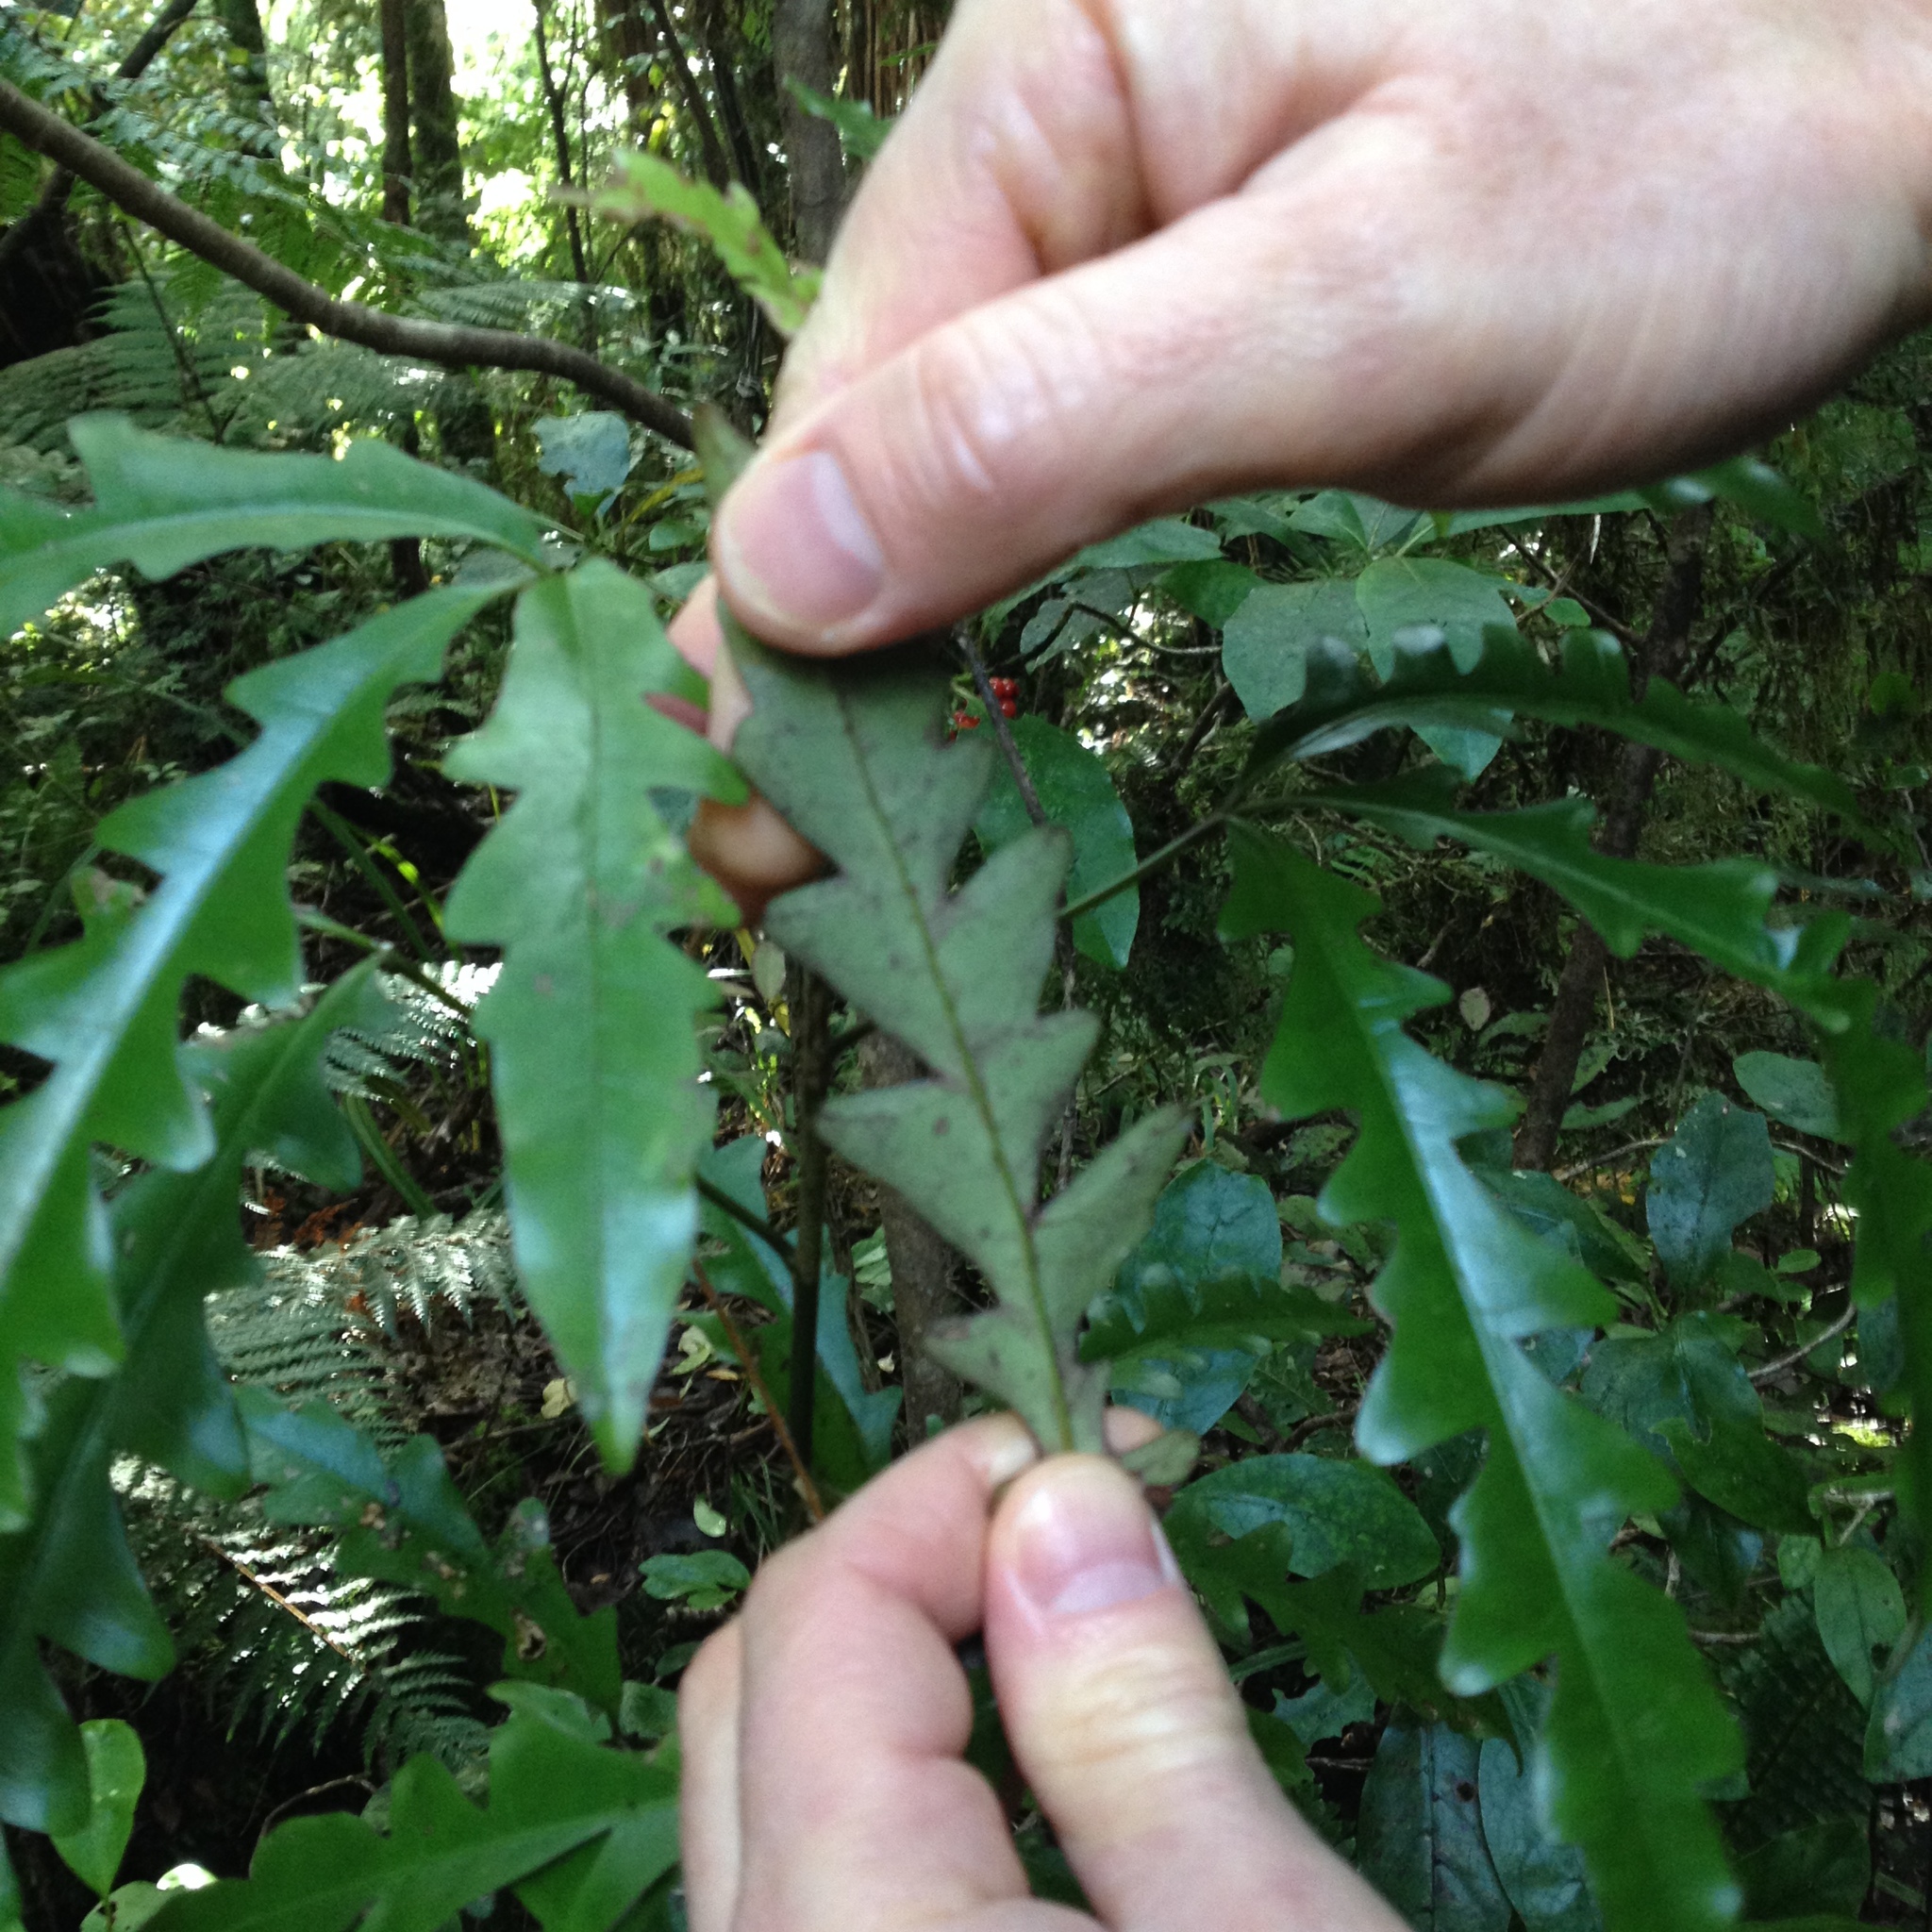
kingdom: Plantae
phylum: Tracheophyta
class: Magnoliopsida
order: Apiales
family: Araliaceae
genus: Raukaua
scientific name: Raukaua edgerleyi
